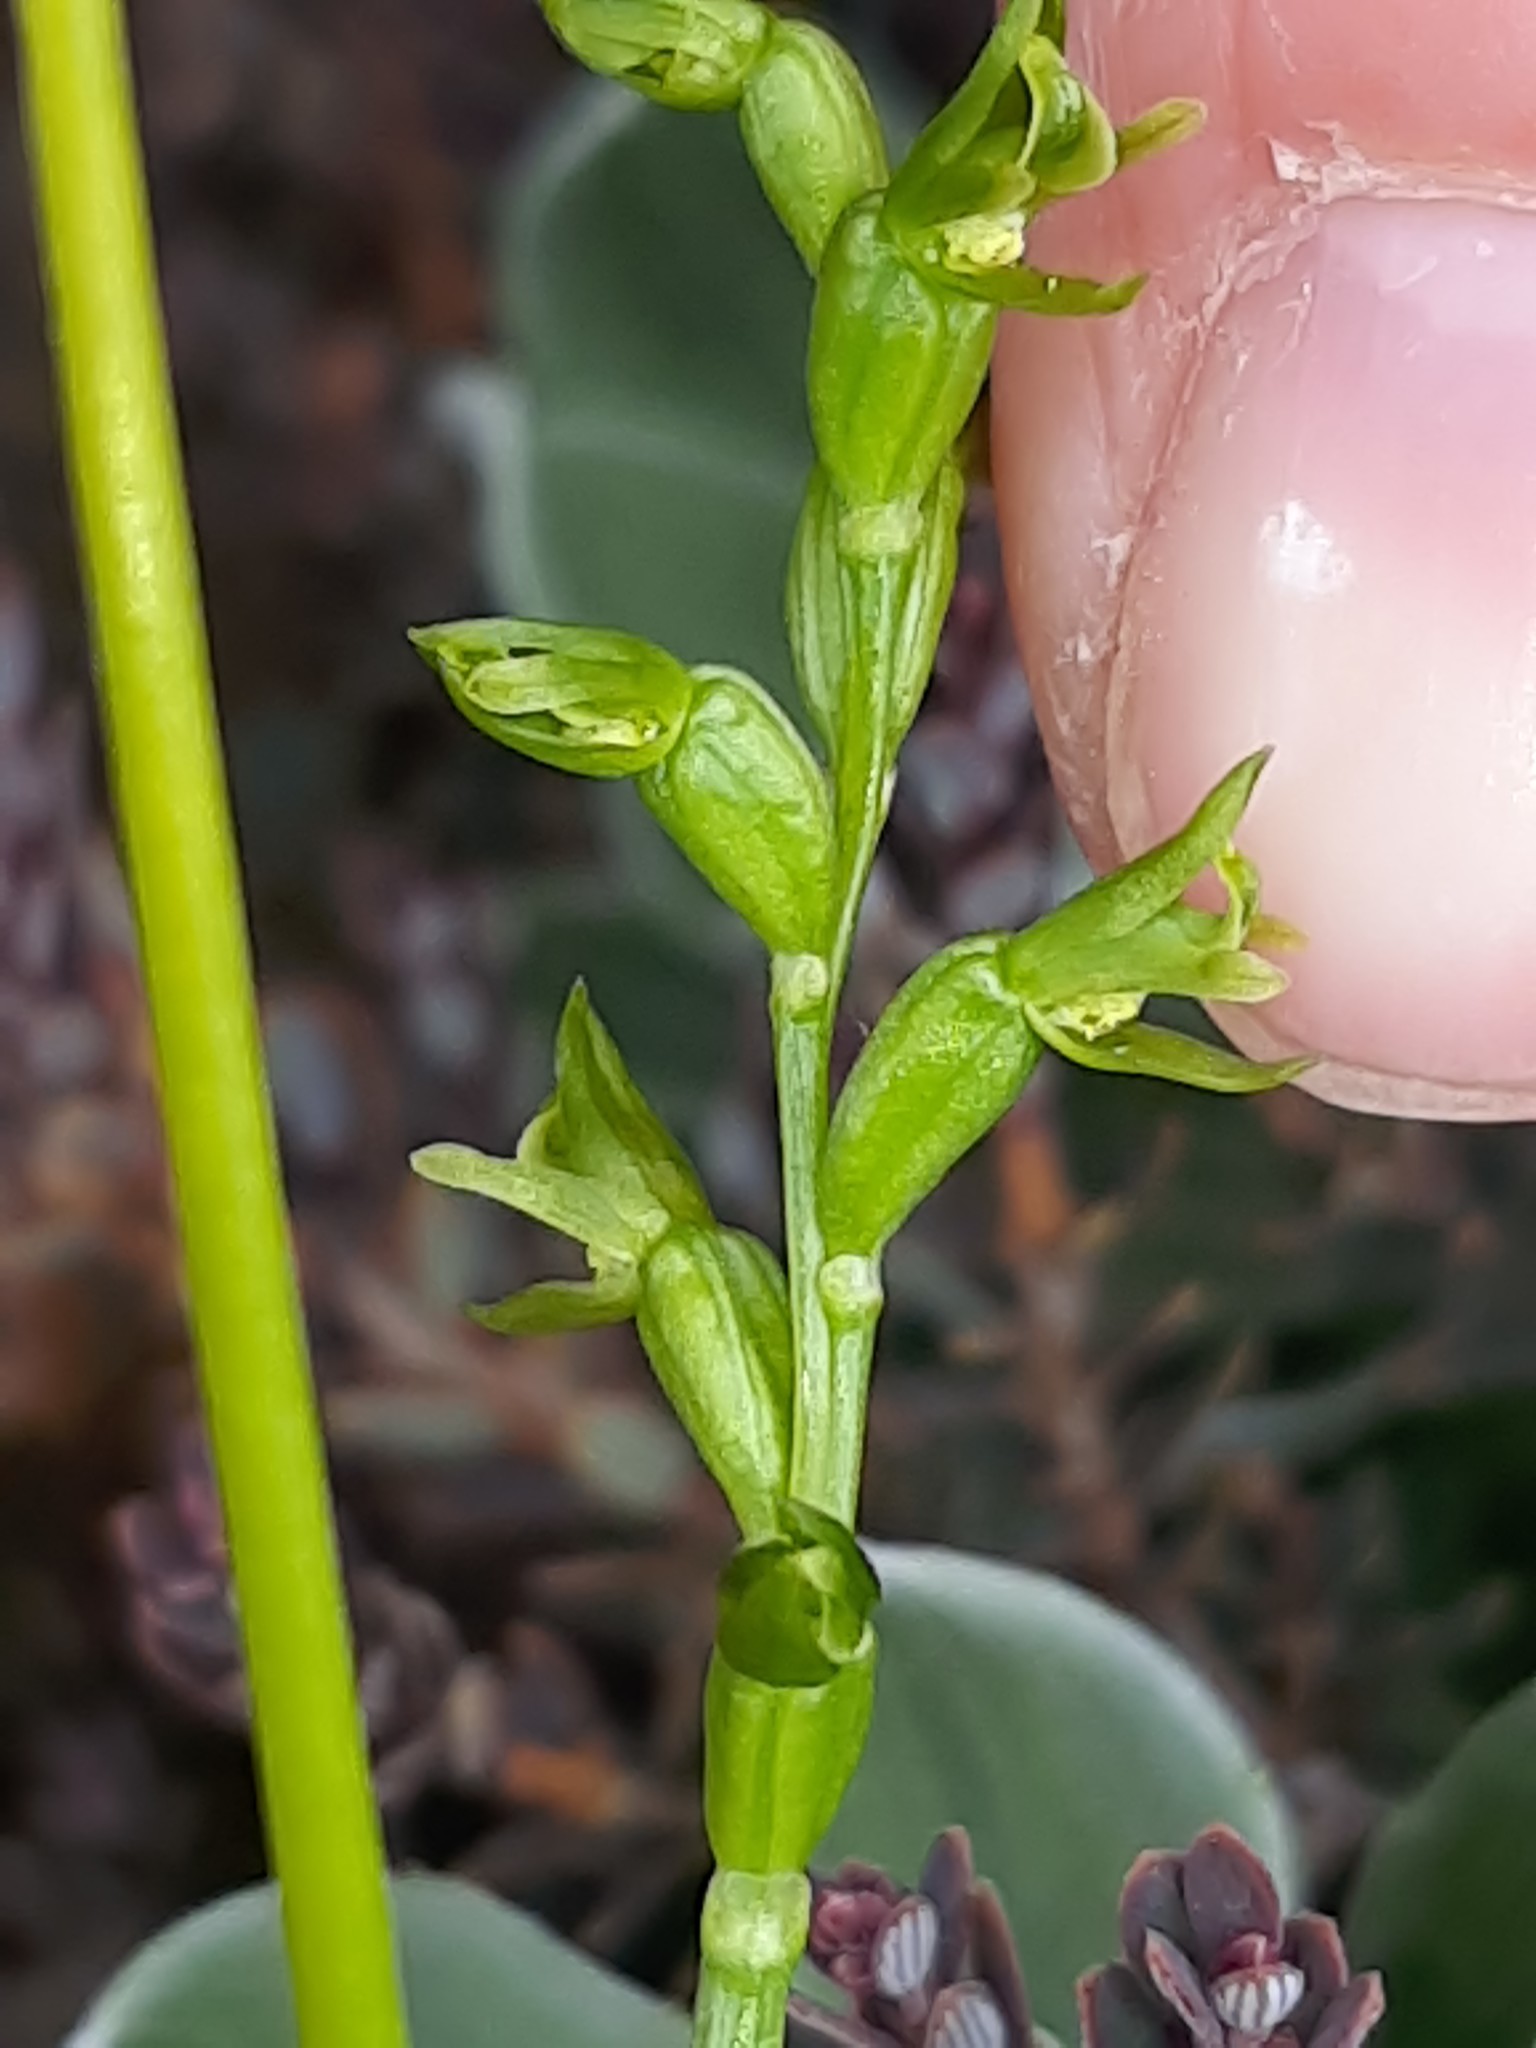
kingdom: Plantae
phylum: Tracheophyta
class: Liliopsida
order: Asparagales
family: Orchidaceae
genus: Prasophyllum
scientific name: Prasophyllum colensoi
